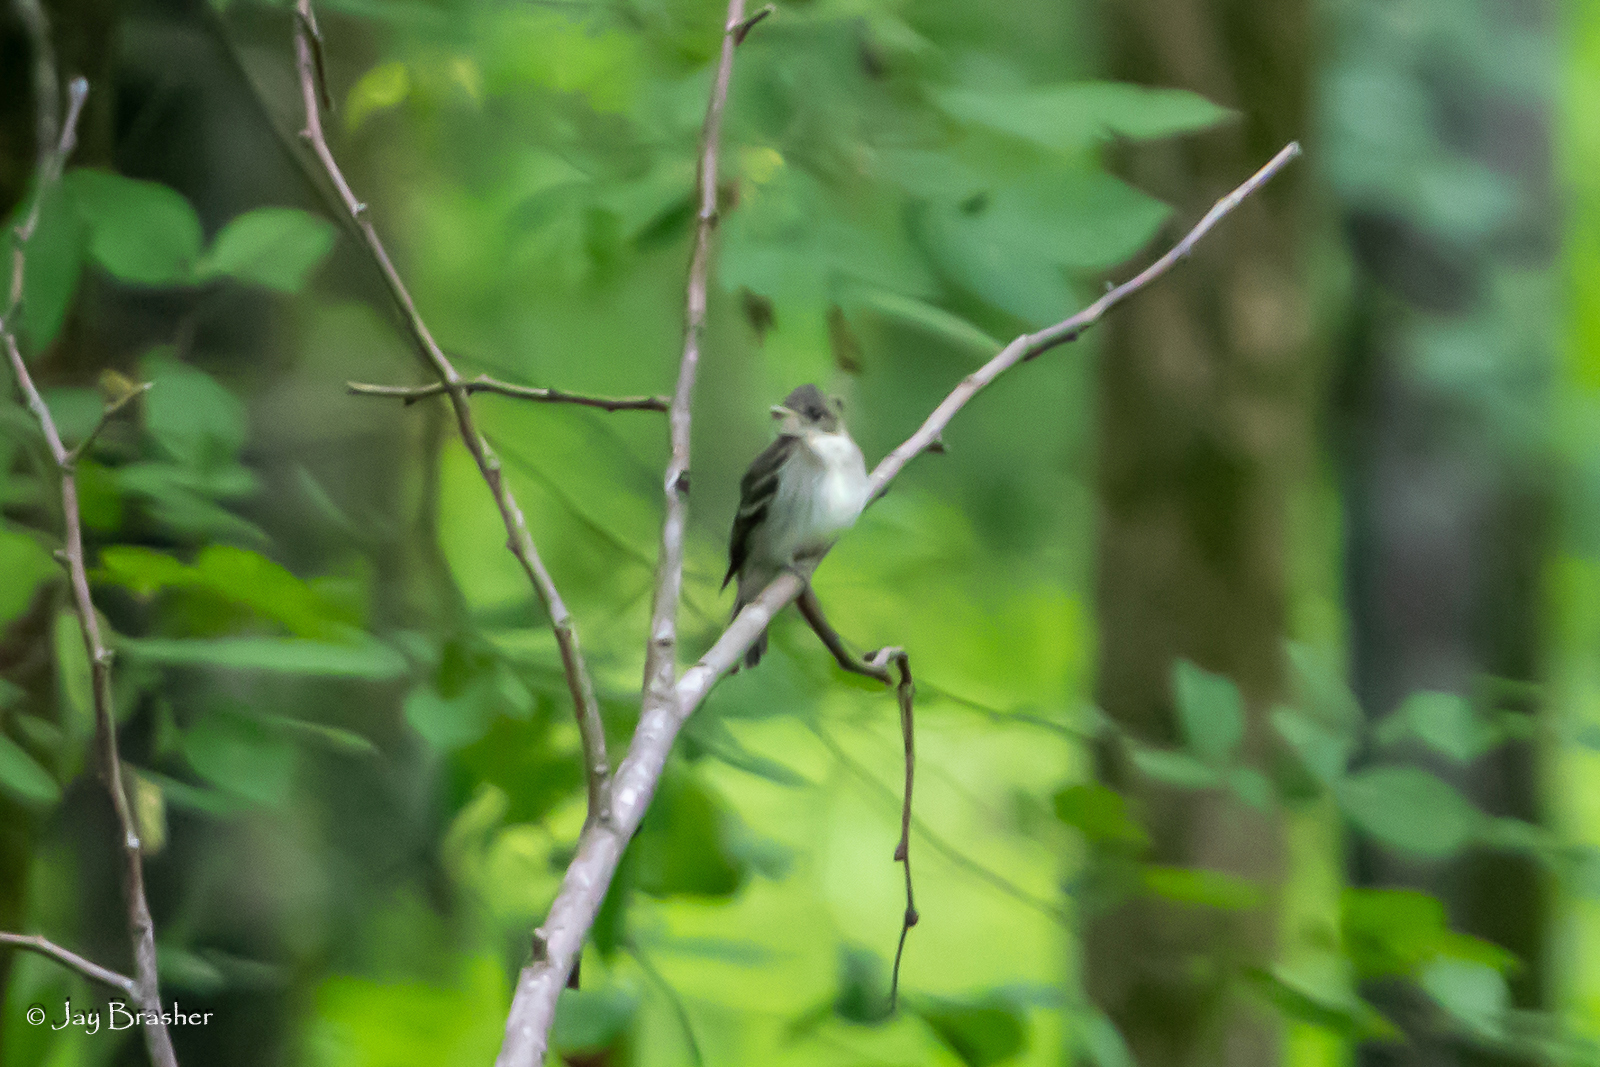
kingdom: Animalia
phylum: Chordata
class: Aves
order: Passeriformes
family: Tyrannidae
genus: Contopus
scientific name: Contopus virens
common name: Eastern wood-pewee
